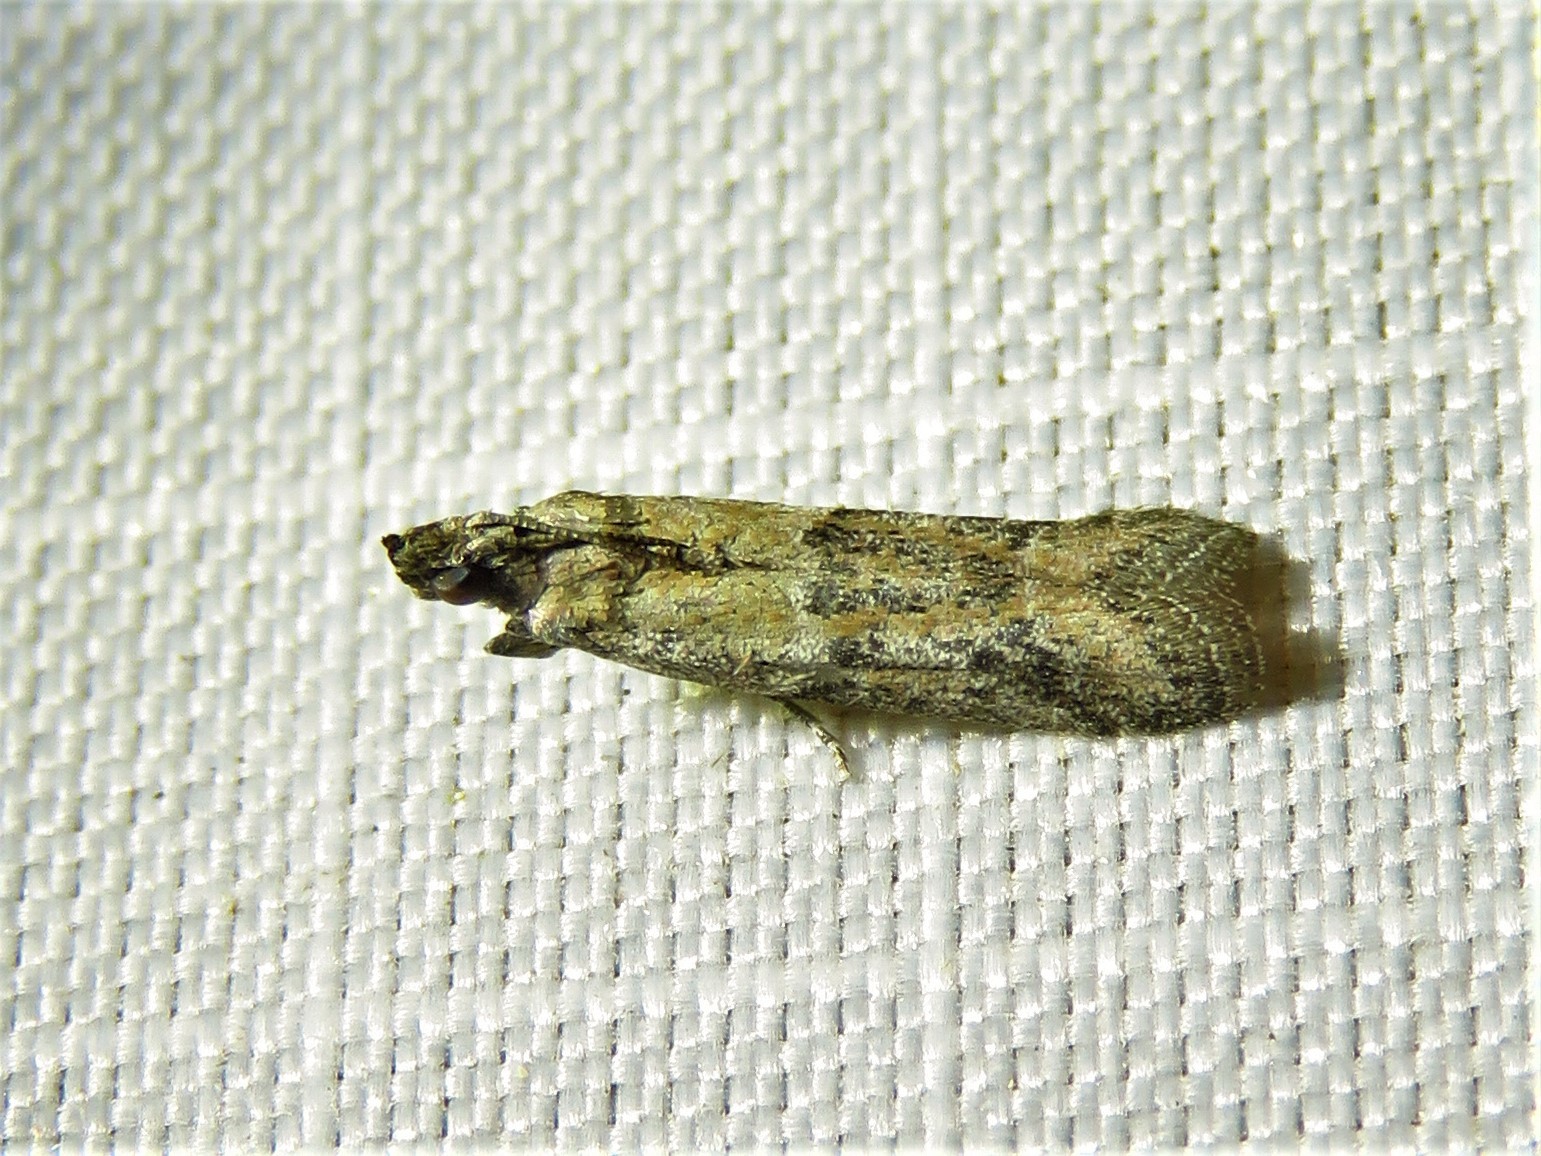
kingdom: Animalia
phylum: Arthropoda
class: Insecta
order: Lepidoptera
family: Pyralidae
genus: Ephestiodes
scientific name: Ephestiodes gilvescentella
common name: Moth
